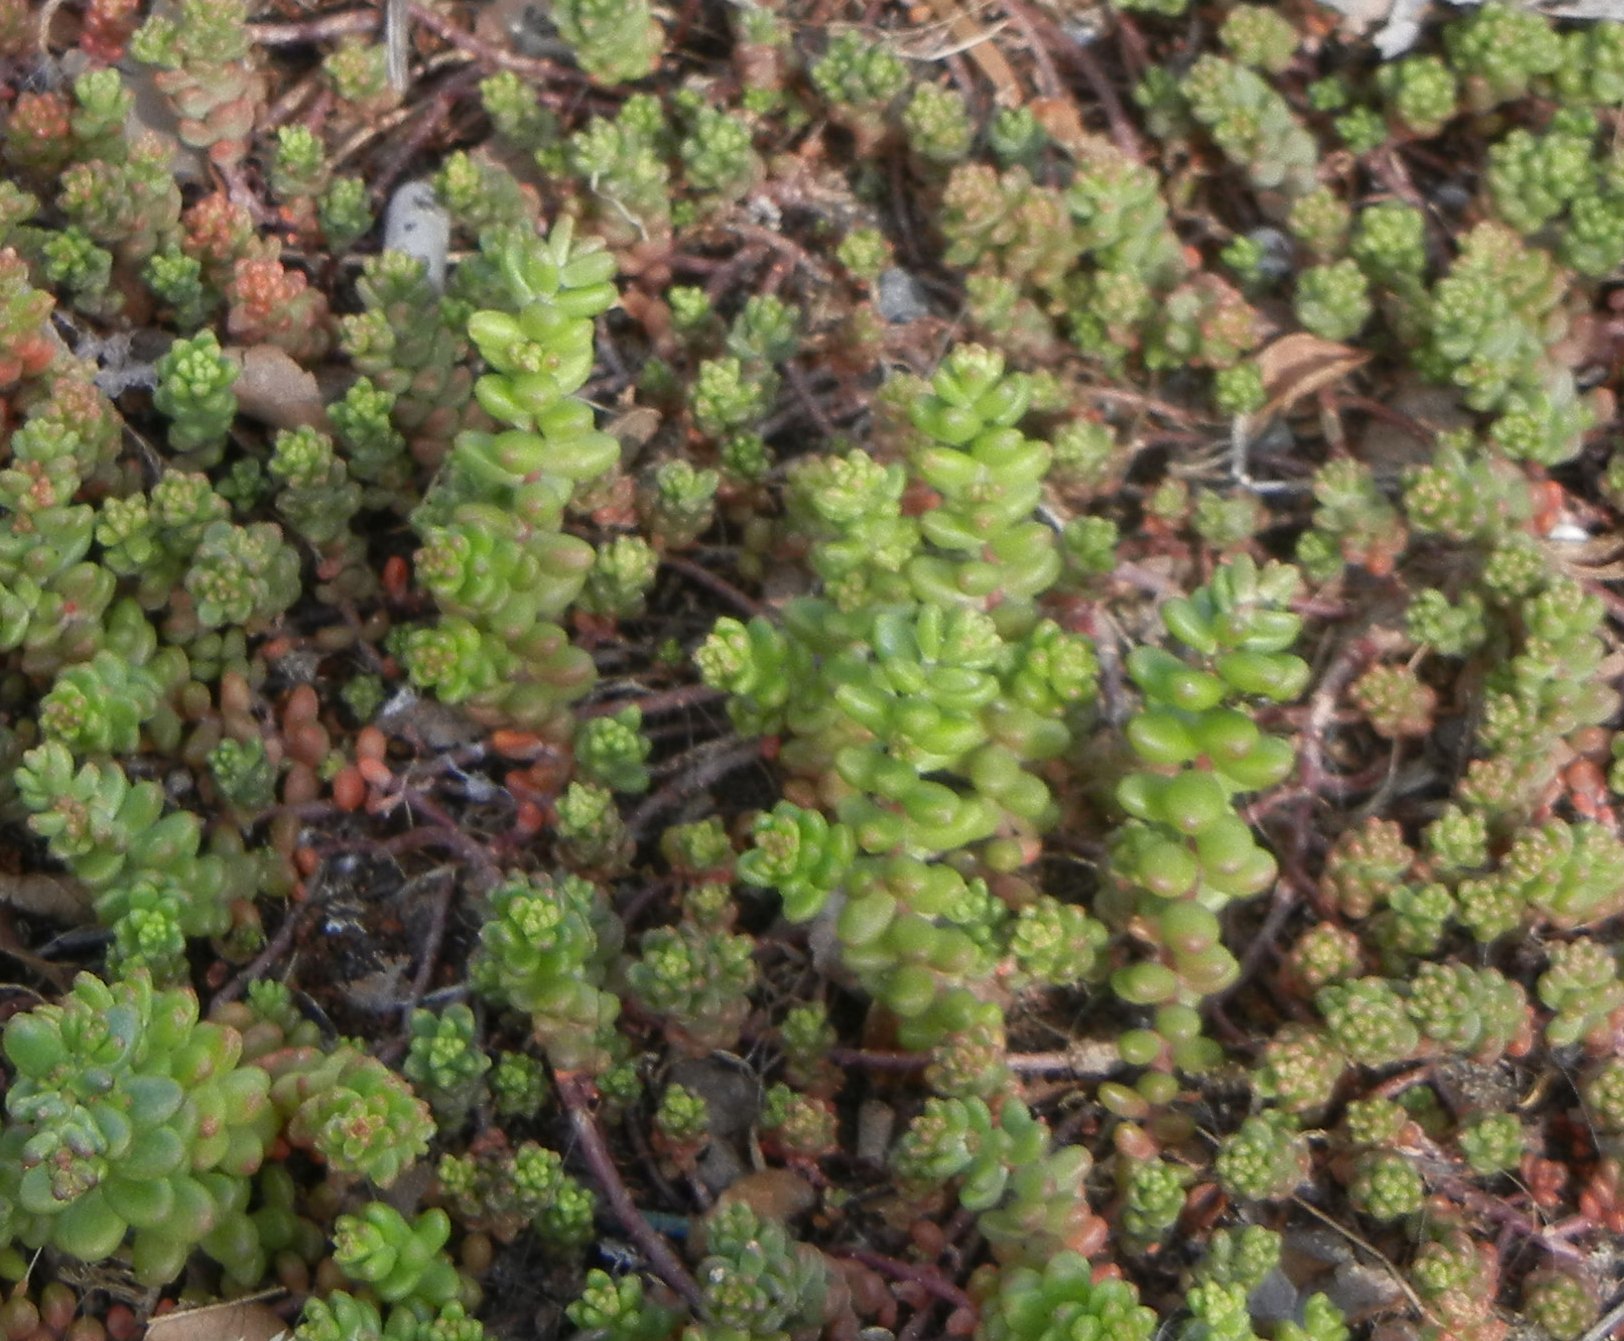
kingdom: Plantae
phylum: Tracheophyta
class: Magnoliopsida
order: Saxifragales
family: Crassulaceae
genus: Sedum
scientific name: Sedum album
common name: White stonecrop
